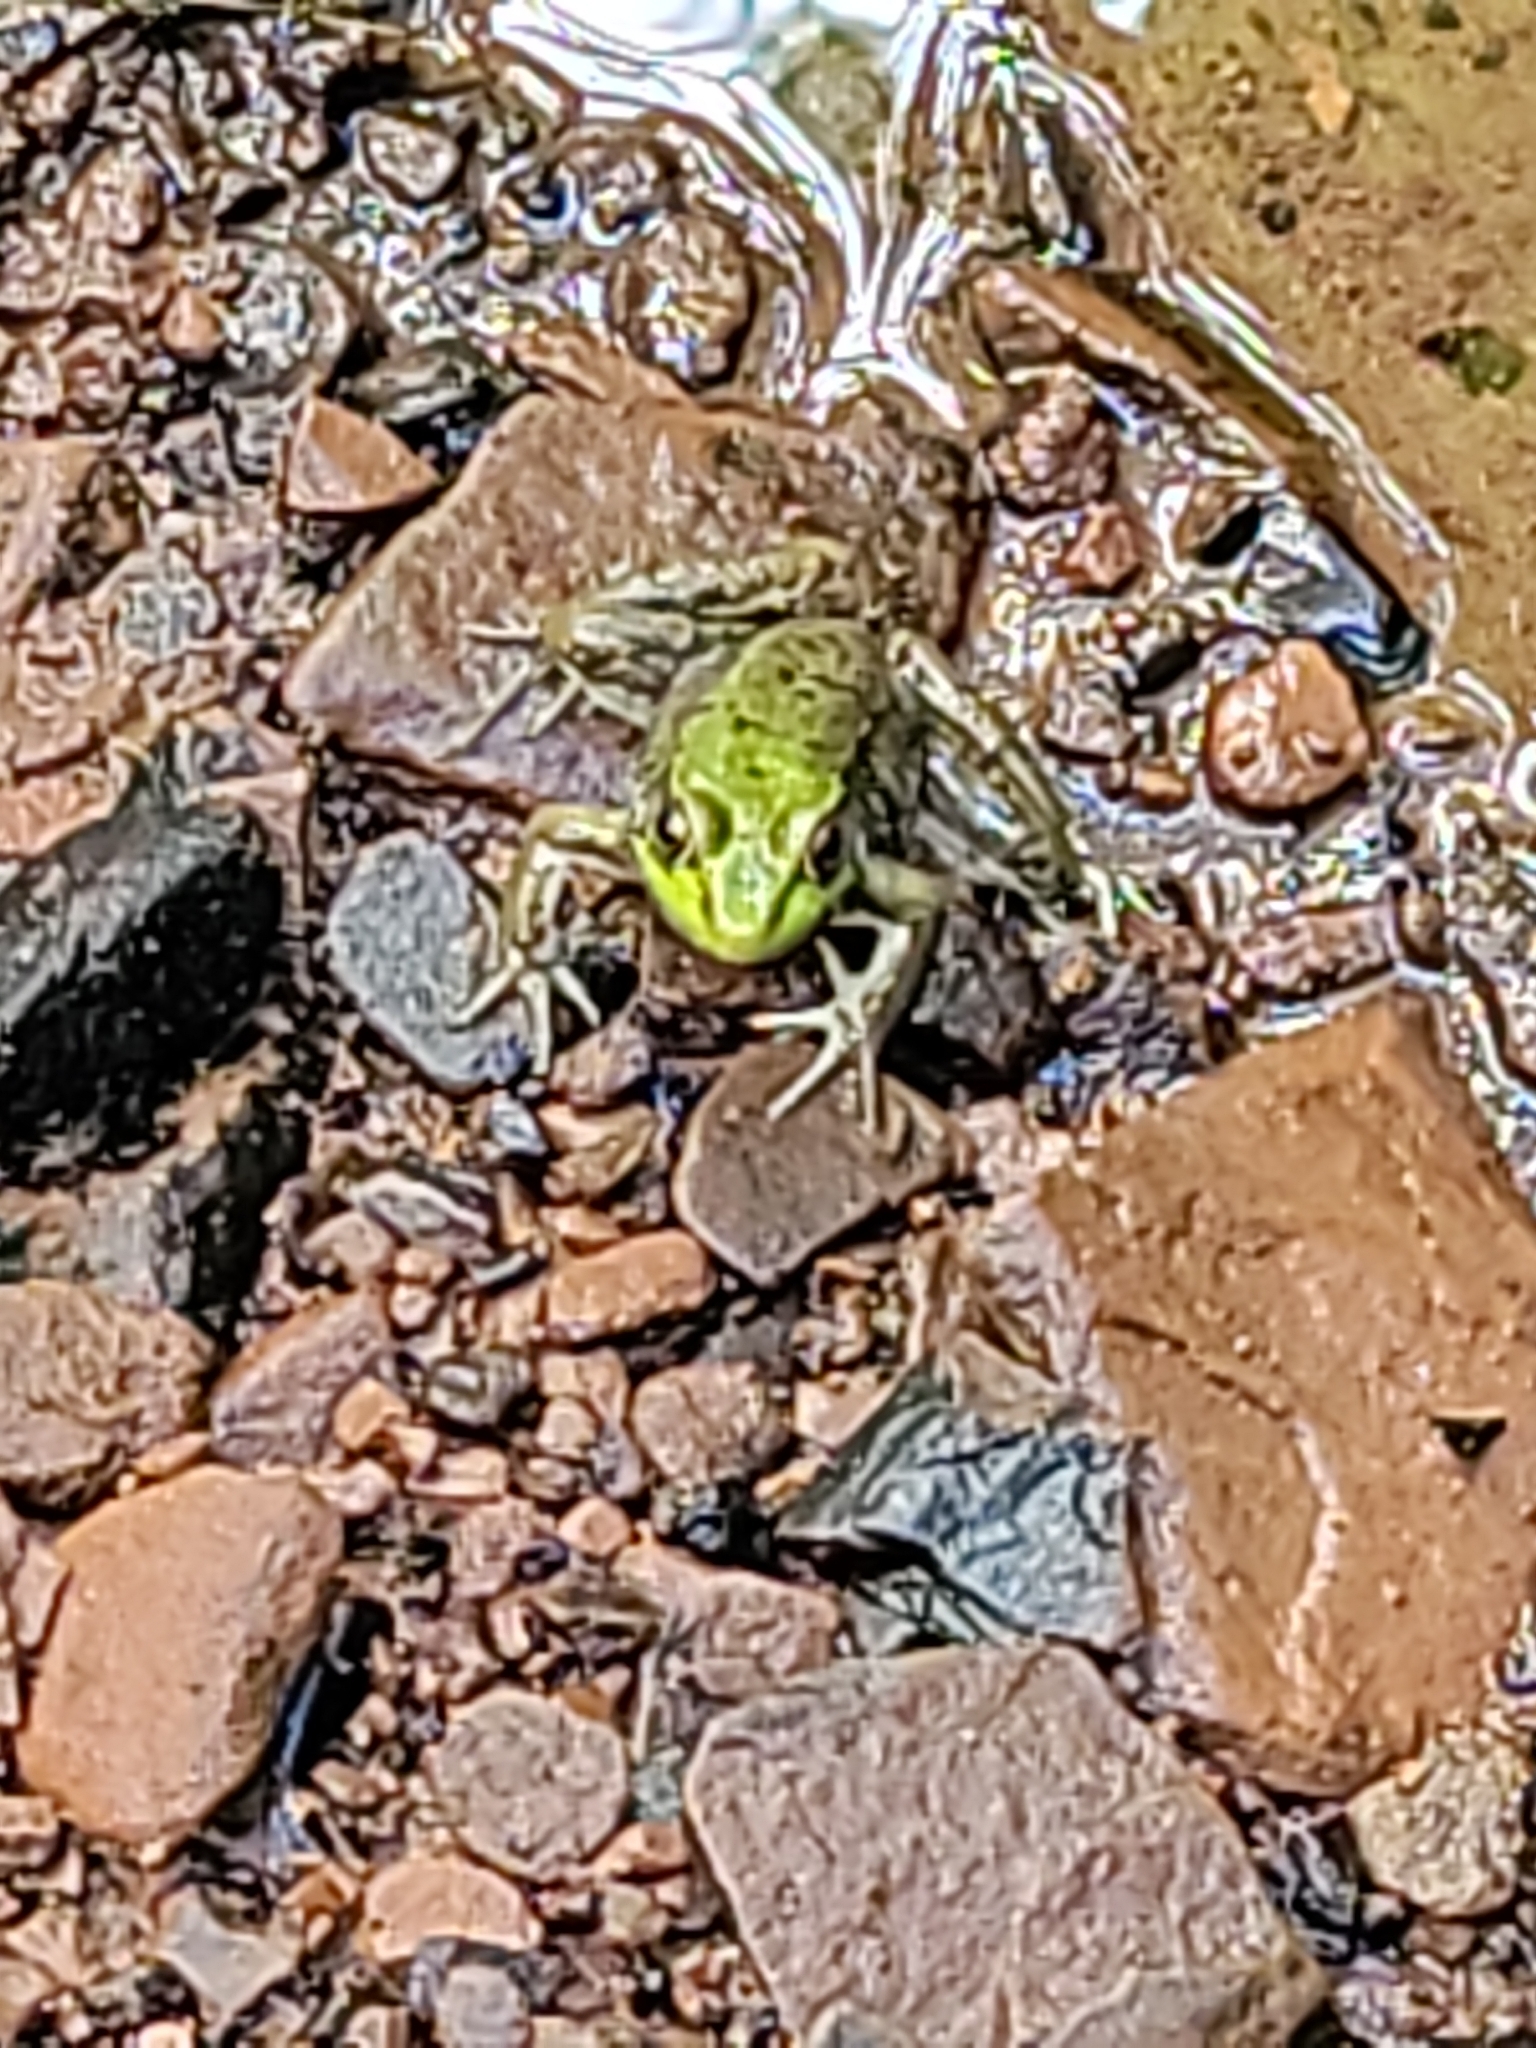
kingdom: Animalia
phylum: Chordata
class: Amphibia
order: Anura
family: Ranidae
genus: Lithobates
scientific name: Lithobates clamitans
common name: Green frog
